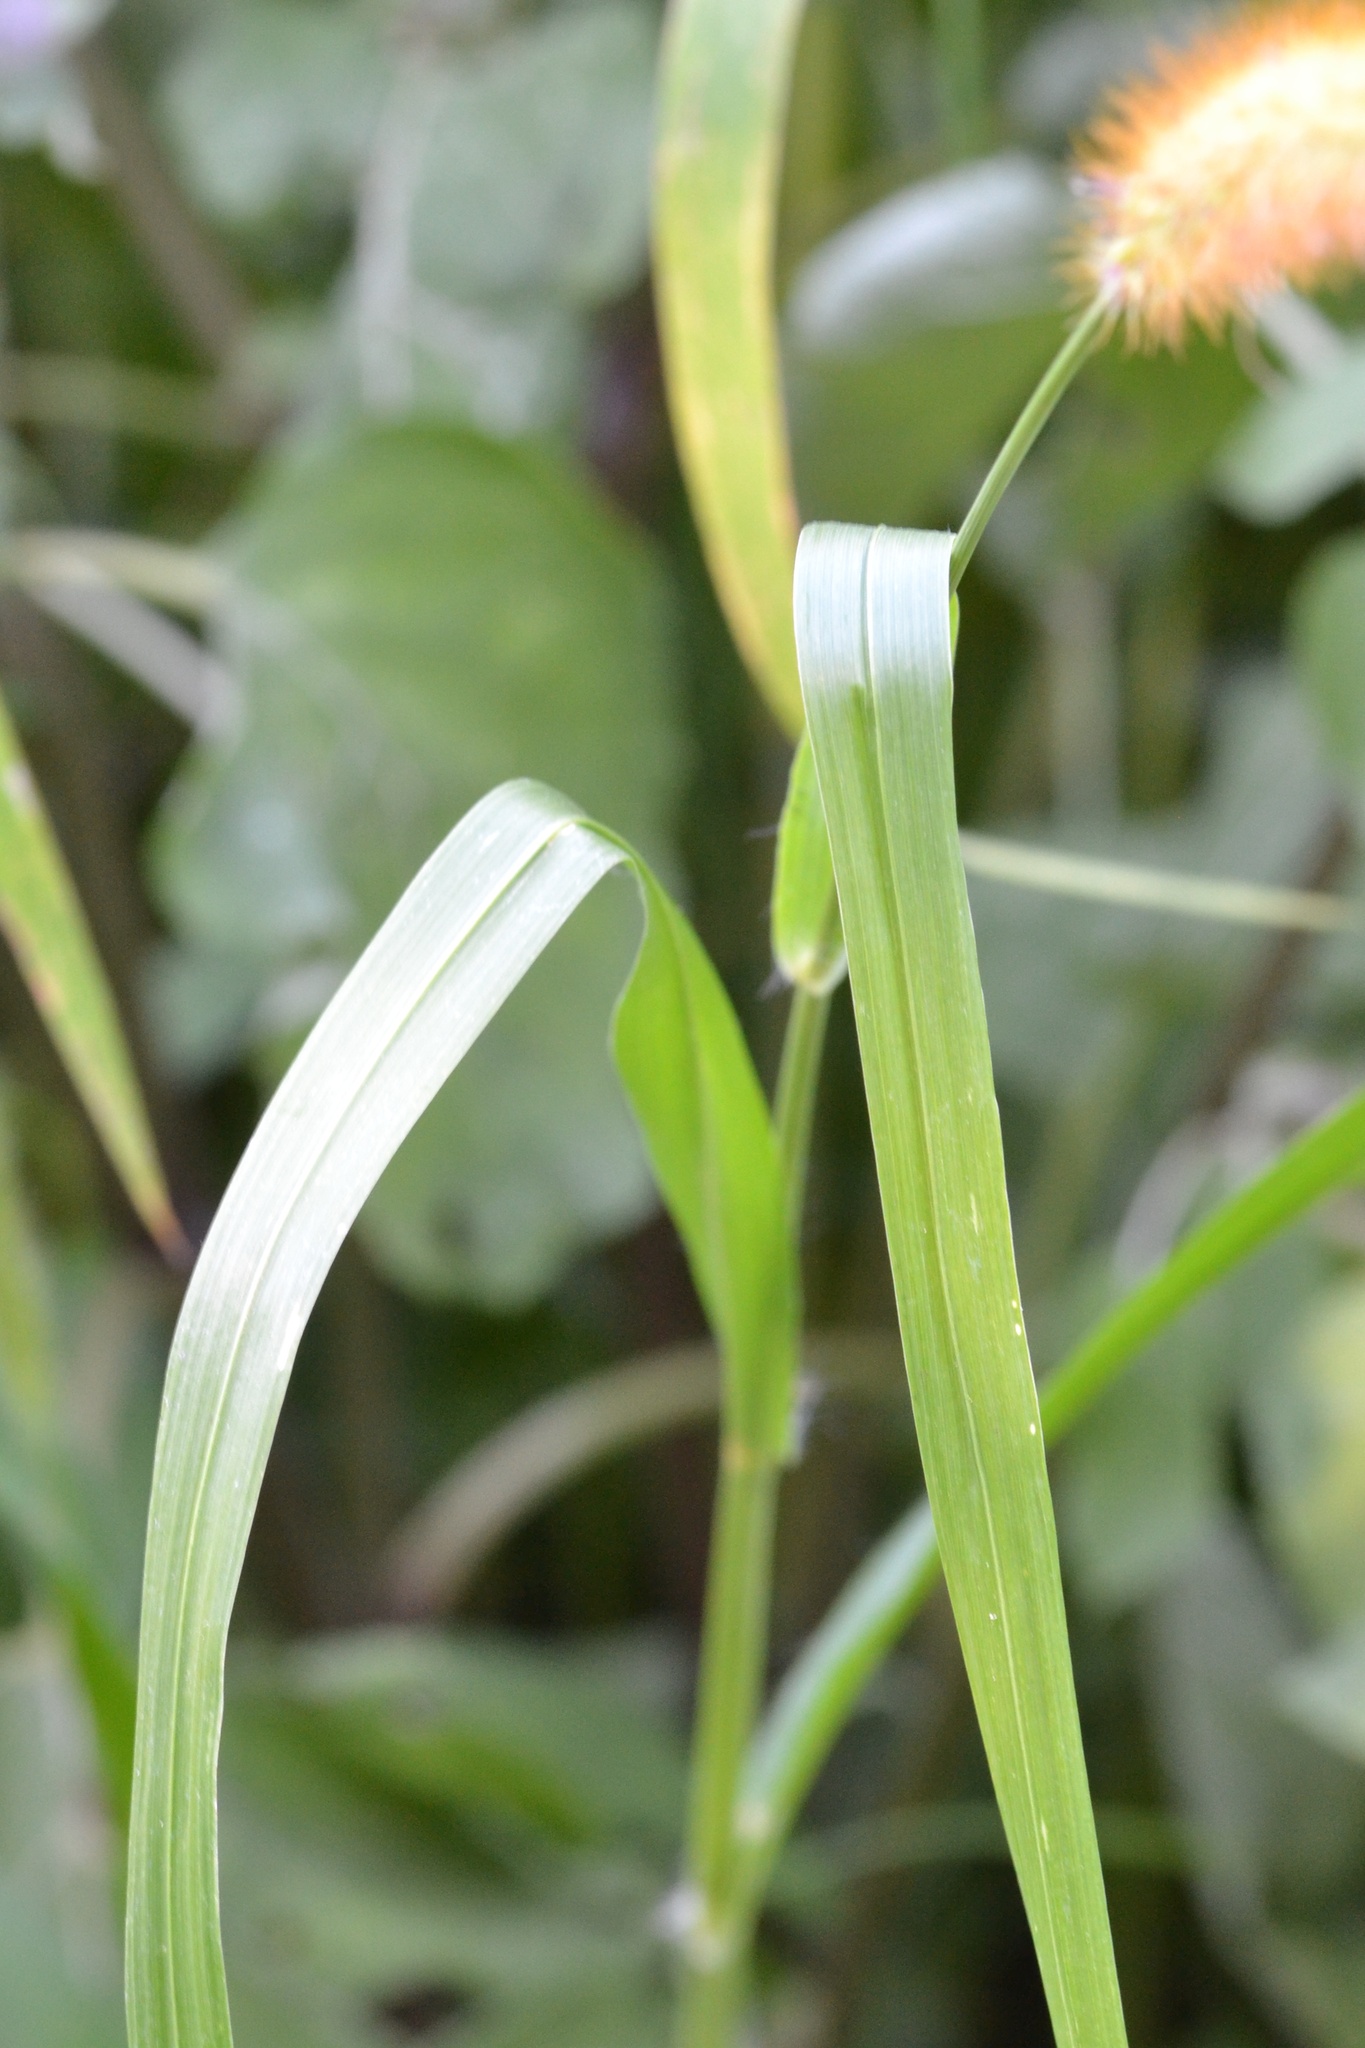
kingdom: Plantae
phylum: Tracheophyta
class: Liliopsida
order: Poales
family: Poaceae
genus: Setaria
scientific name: Setaria pumila
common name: Yellow bristle-grass
